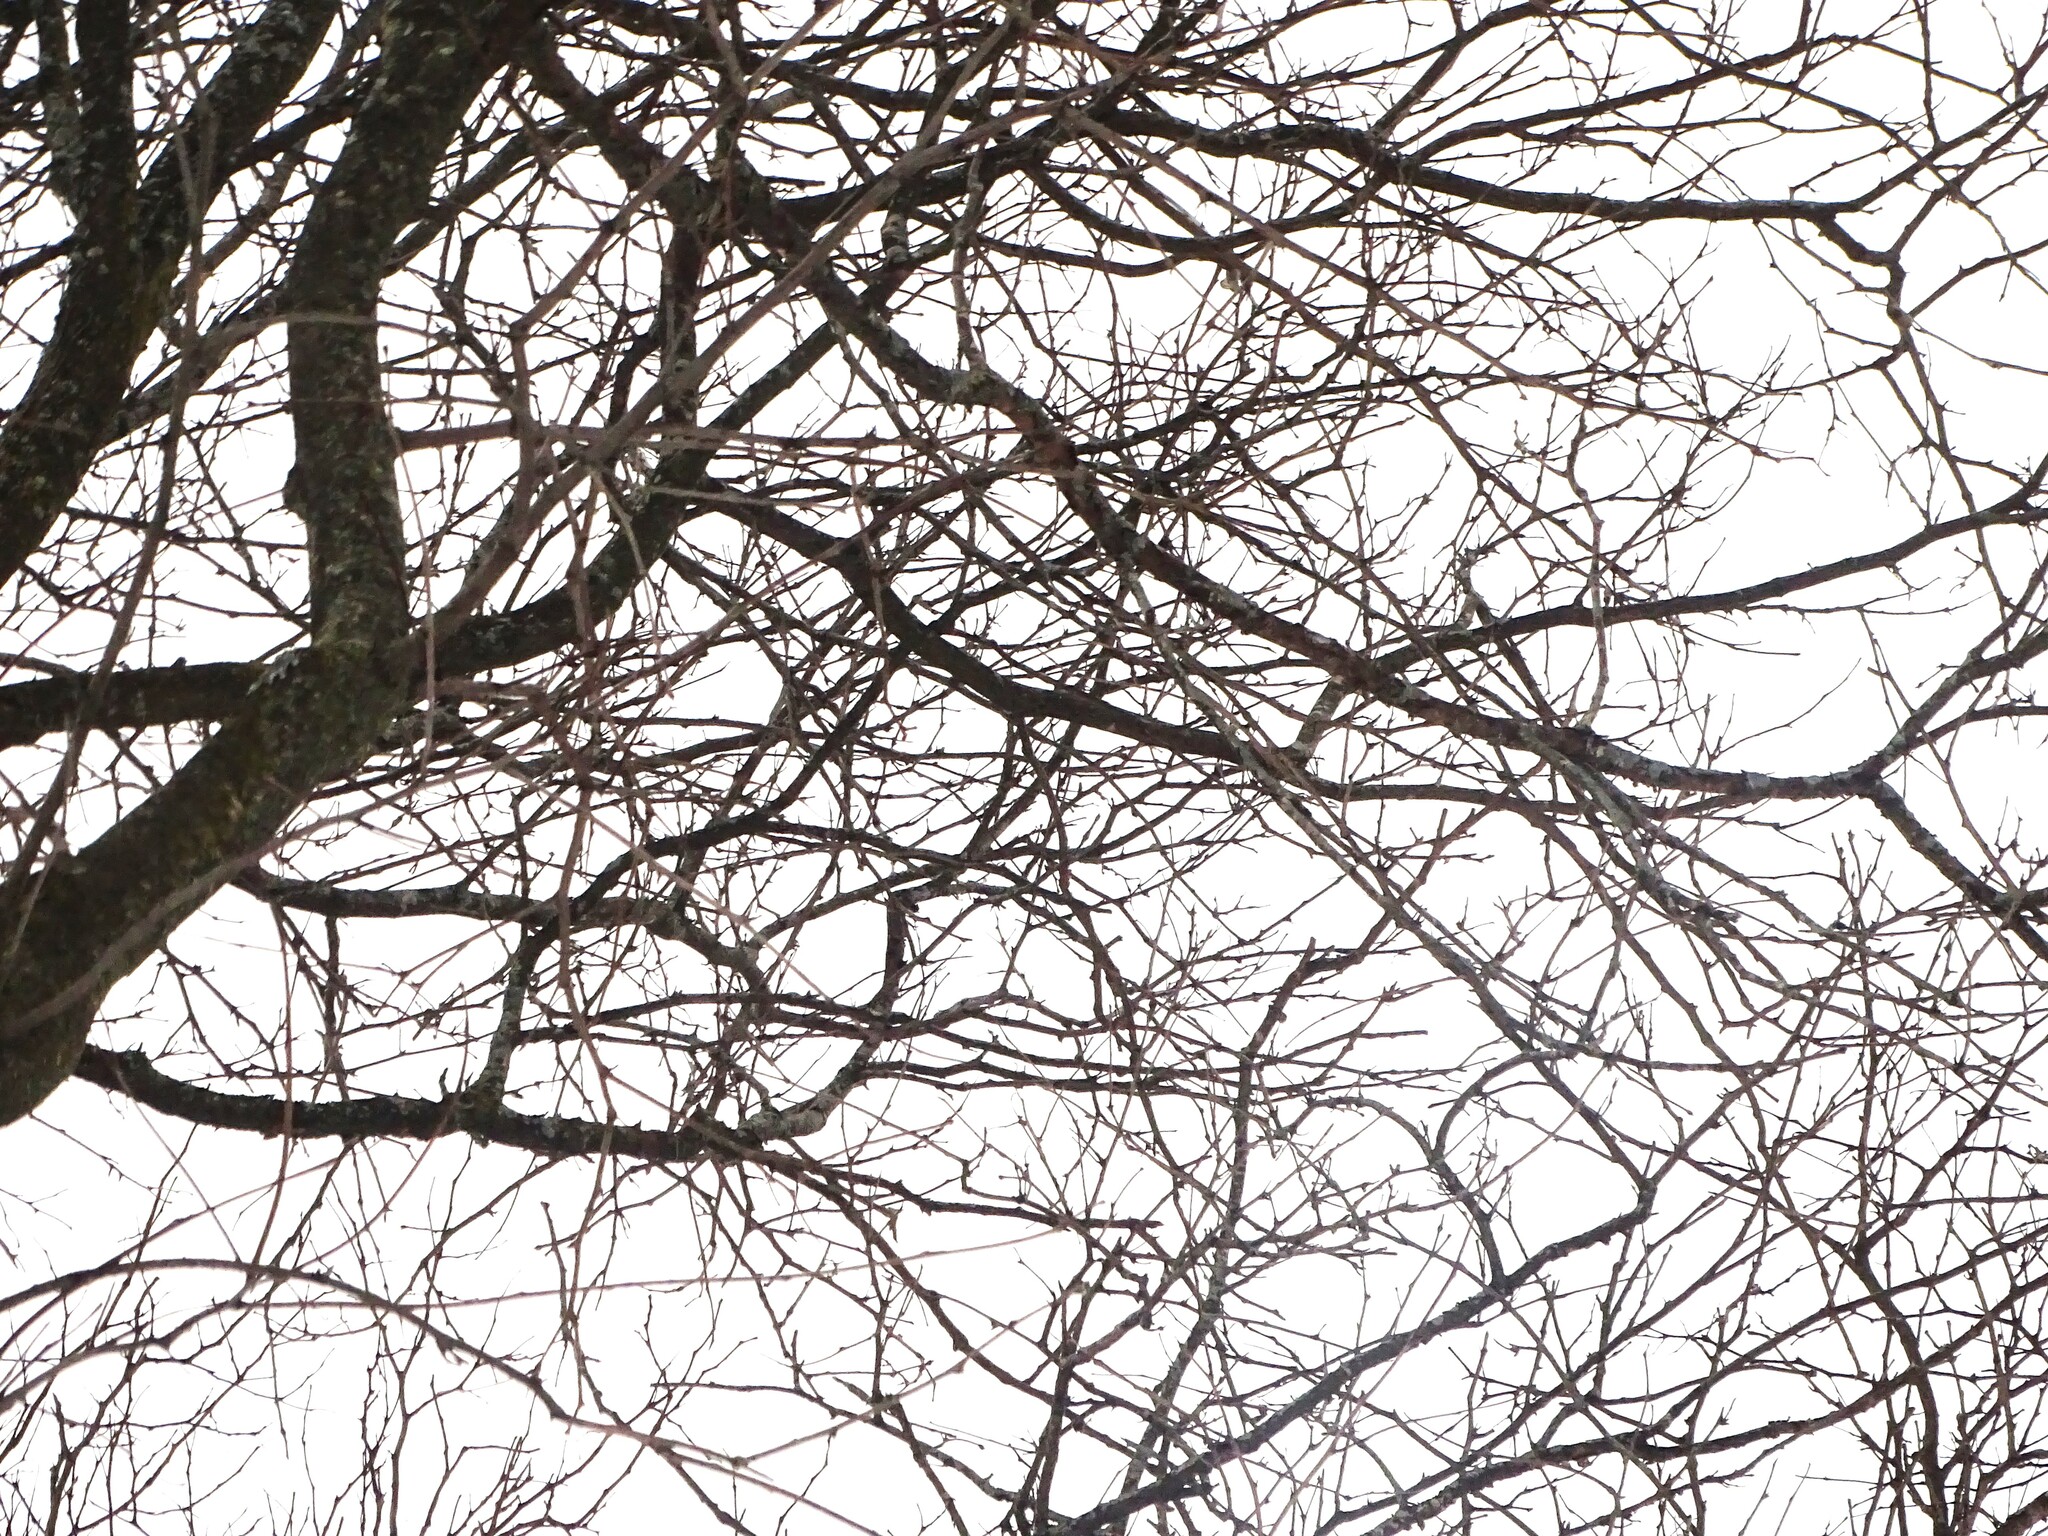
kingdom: Plantae
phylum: Tracheophyta
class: Magnoliopsida
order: Fabales
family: Fabaceae
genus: Gleditsia
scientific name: Gleditsia triacanthos
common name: Common honeylocust
